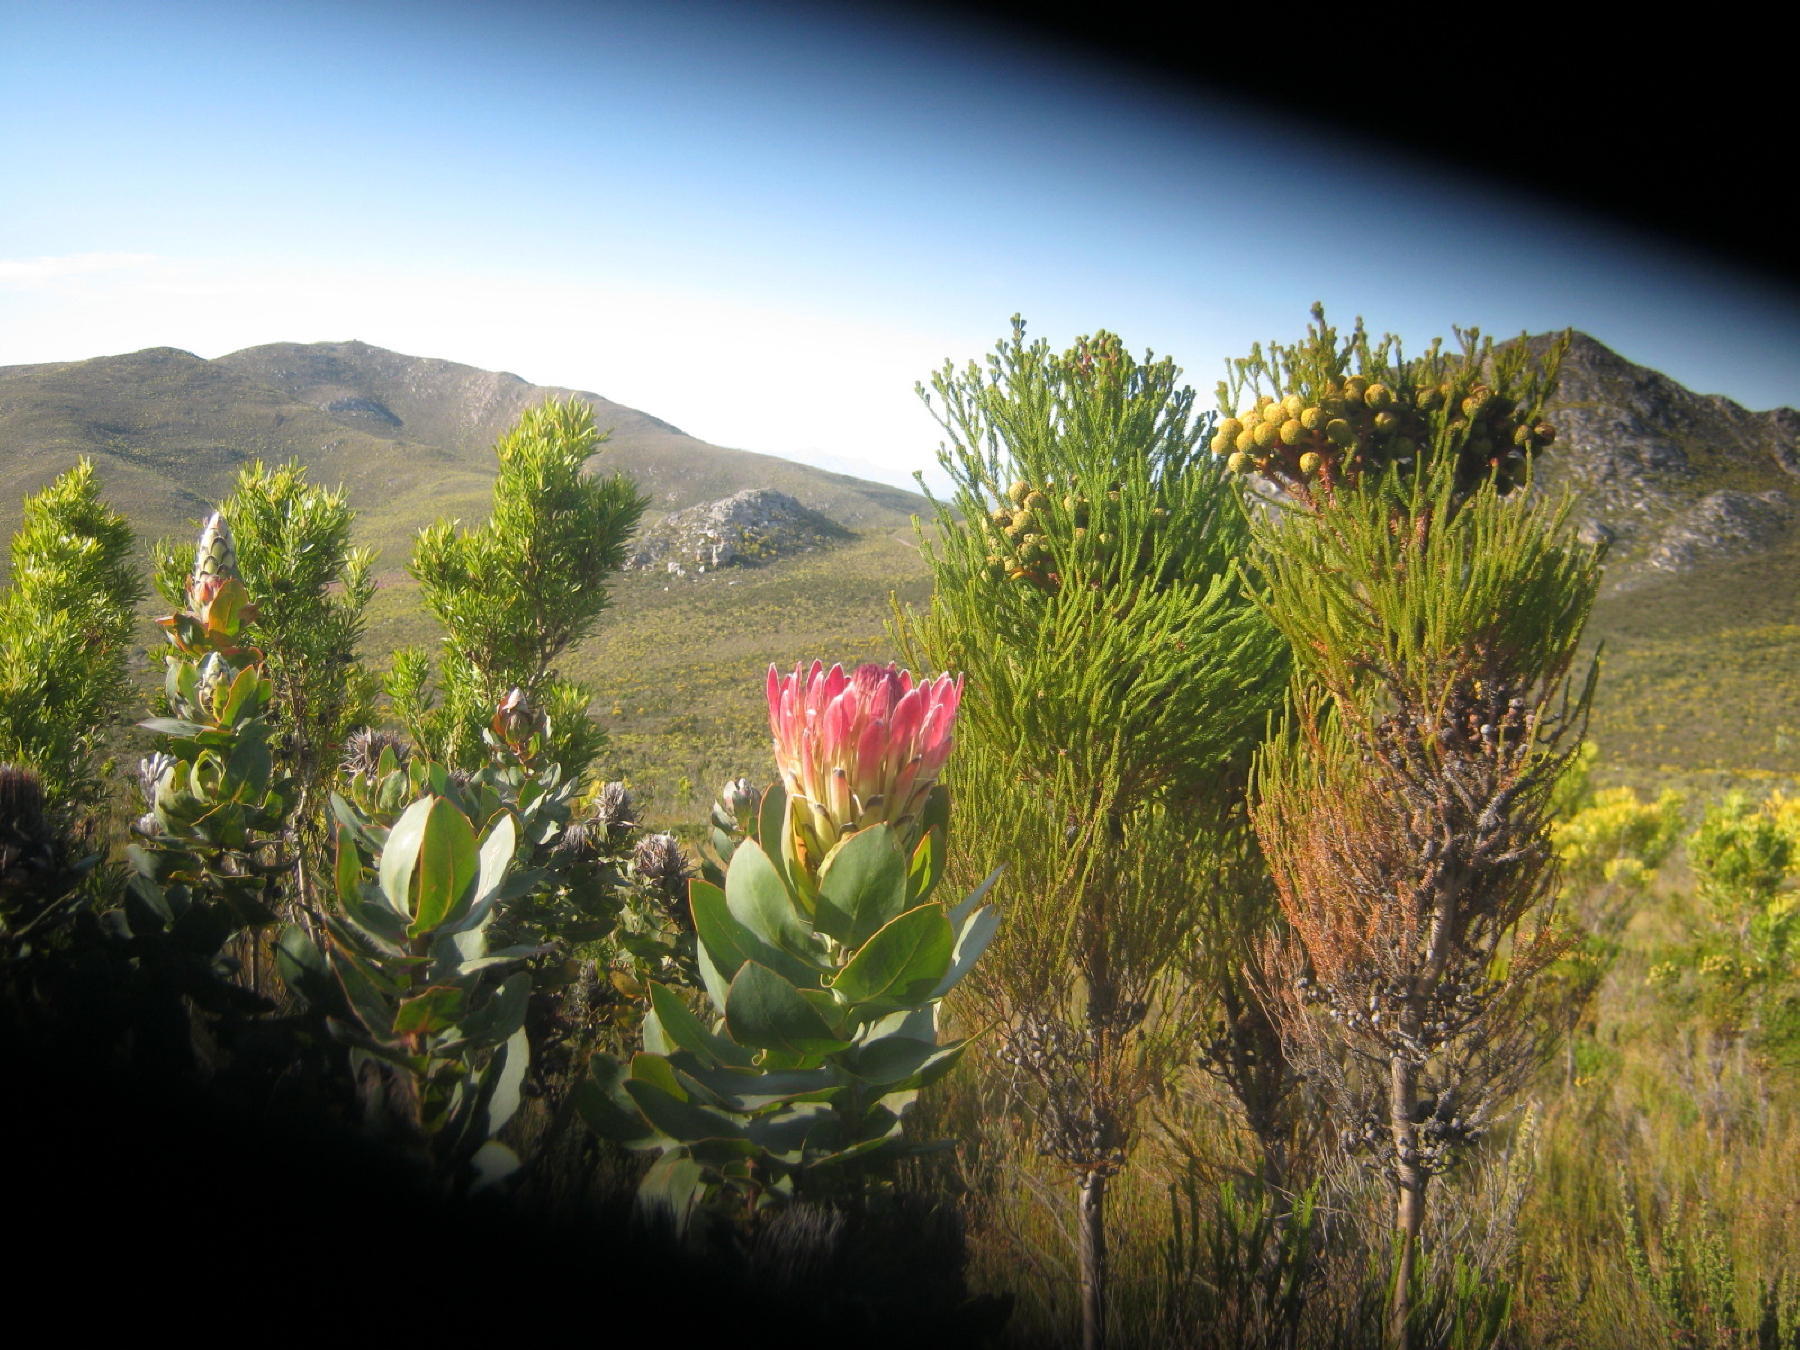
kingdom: Plantae
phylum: Tracheophyta
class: Magnoliopsida
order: Proteales
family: Proteaceae
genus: Protea
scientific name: Protea eximia
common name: Broad-leaved sugarbush
